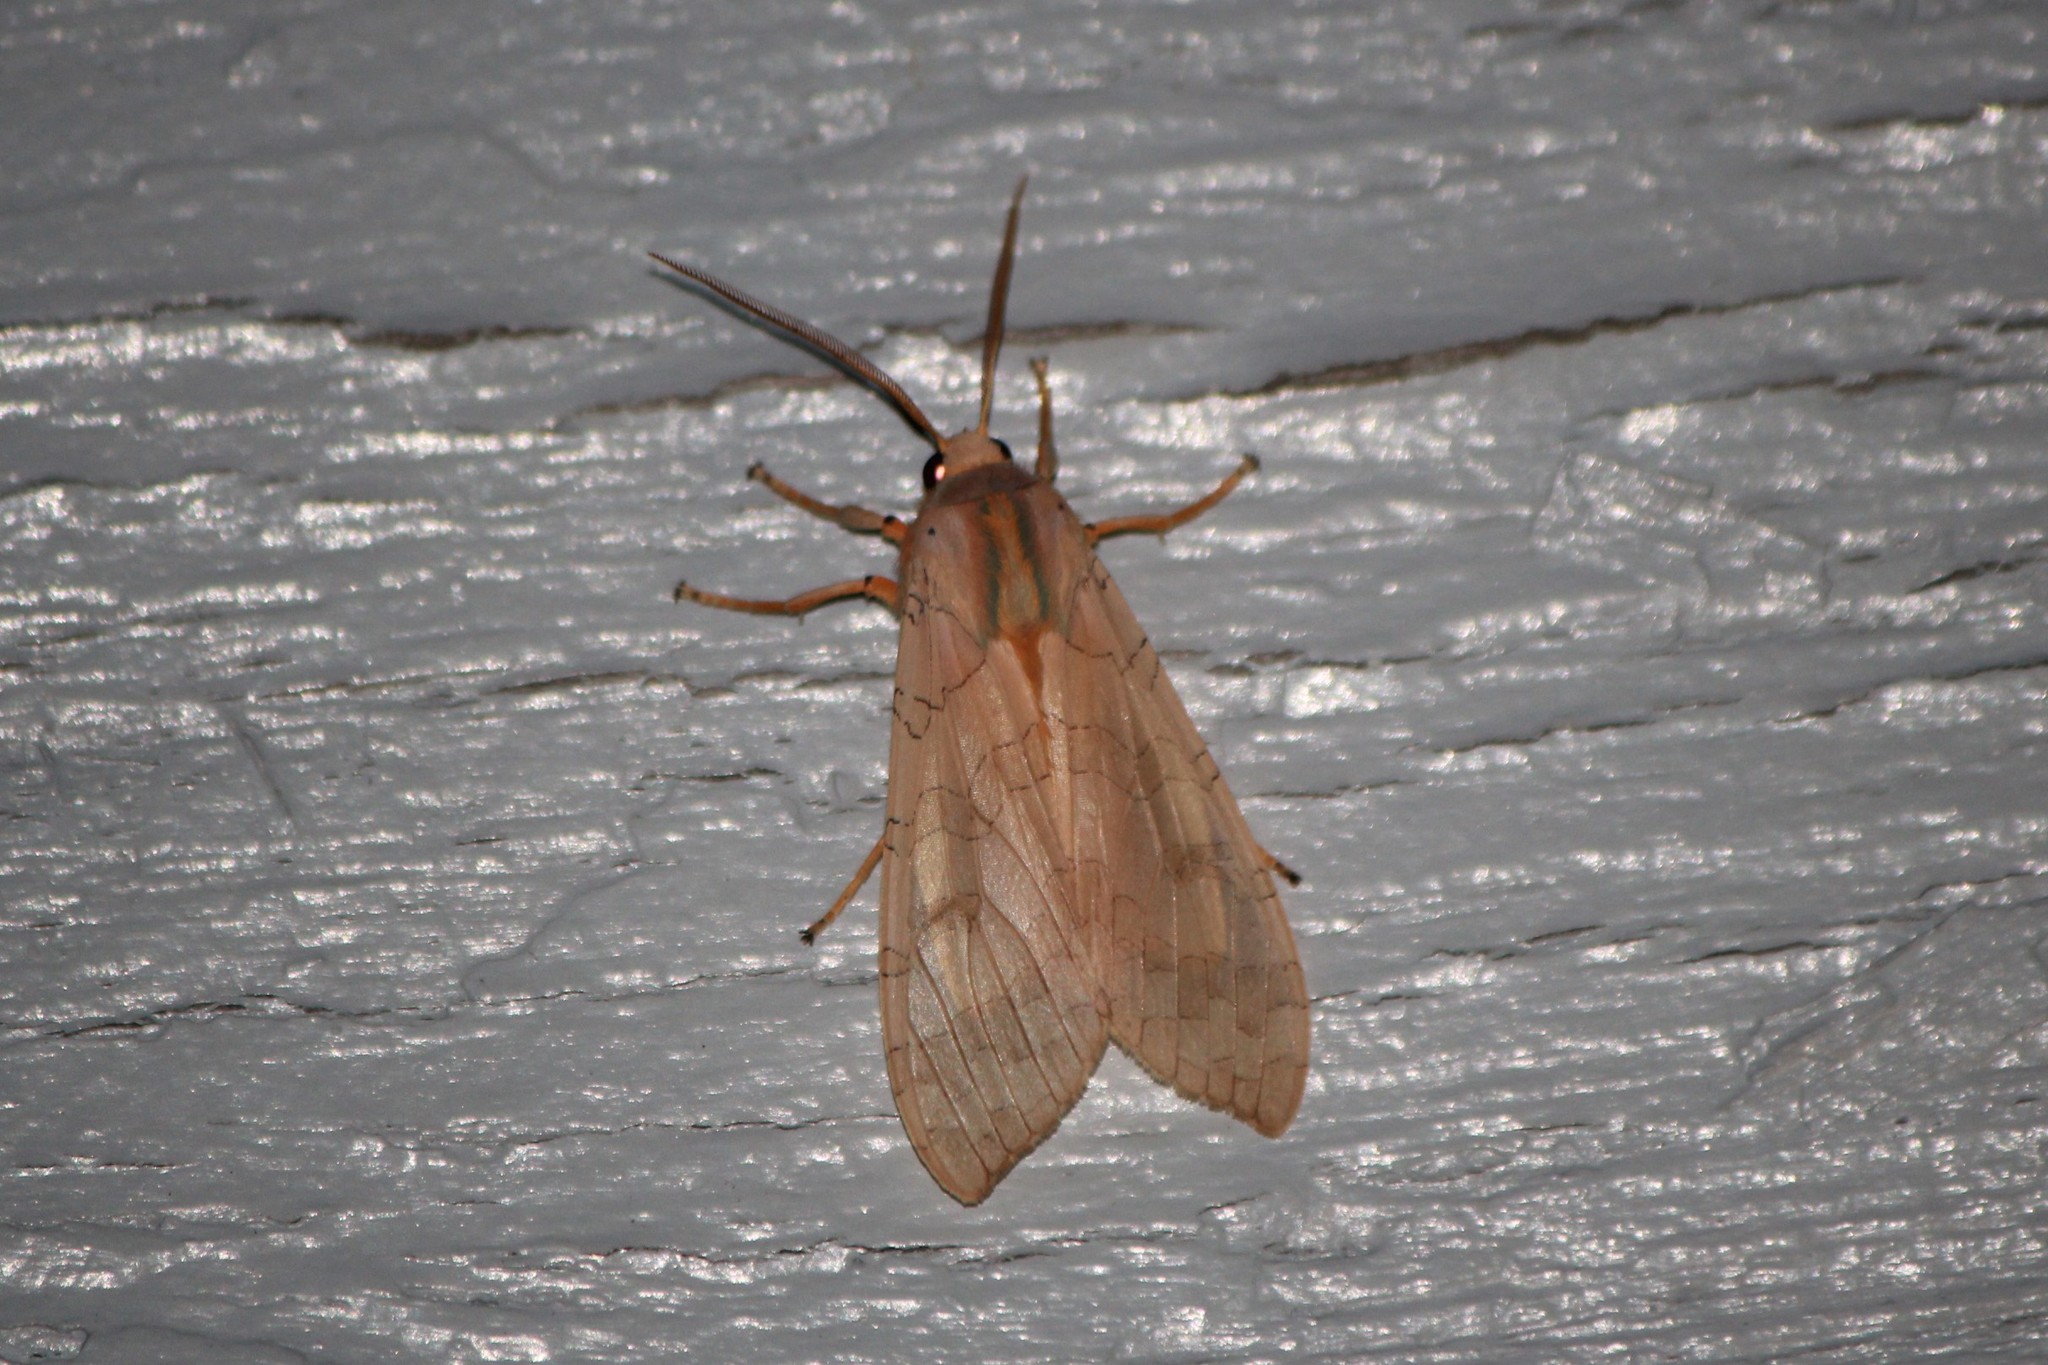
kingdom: Animalia
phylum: Arthropoda
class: Insecta
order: Lepidoptera
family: Erebidae
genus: Halysidota
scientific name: Halysidota tessellaris
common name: Banded tussock moth
